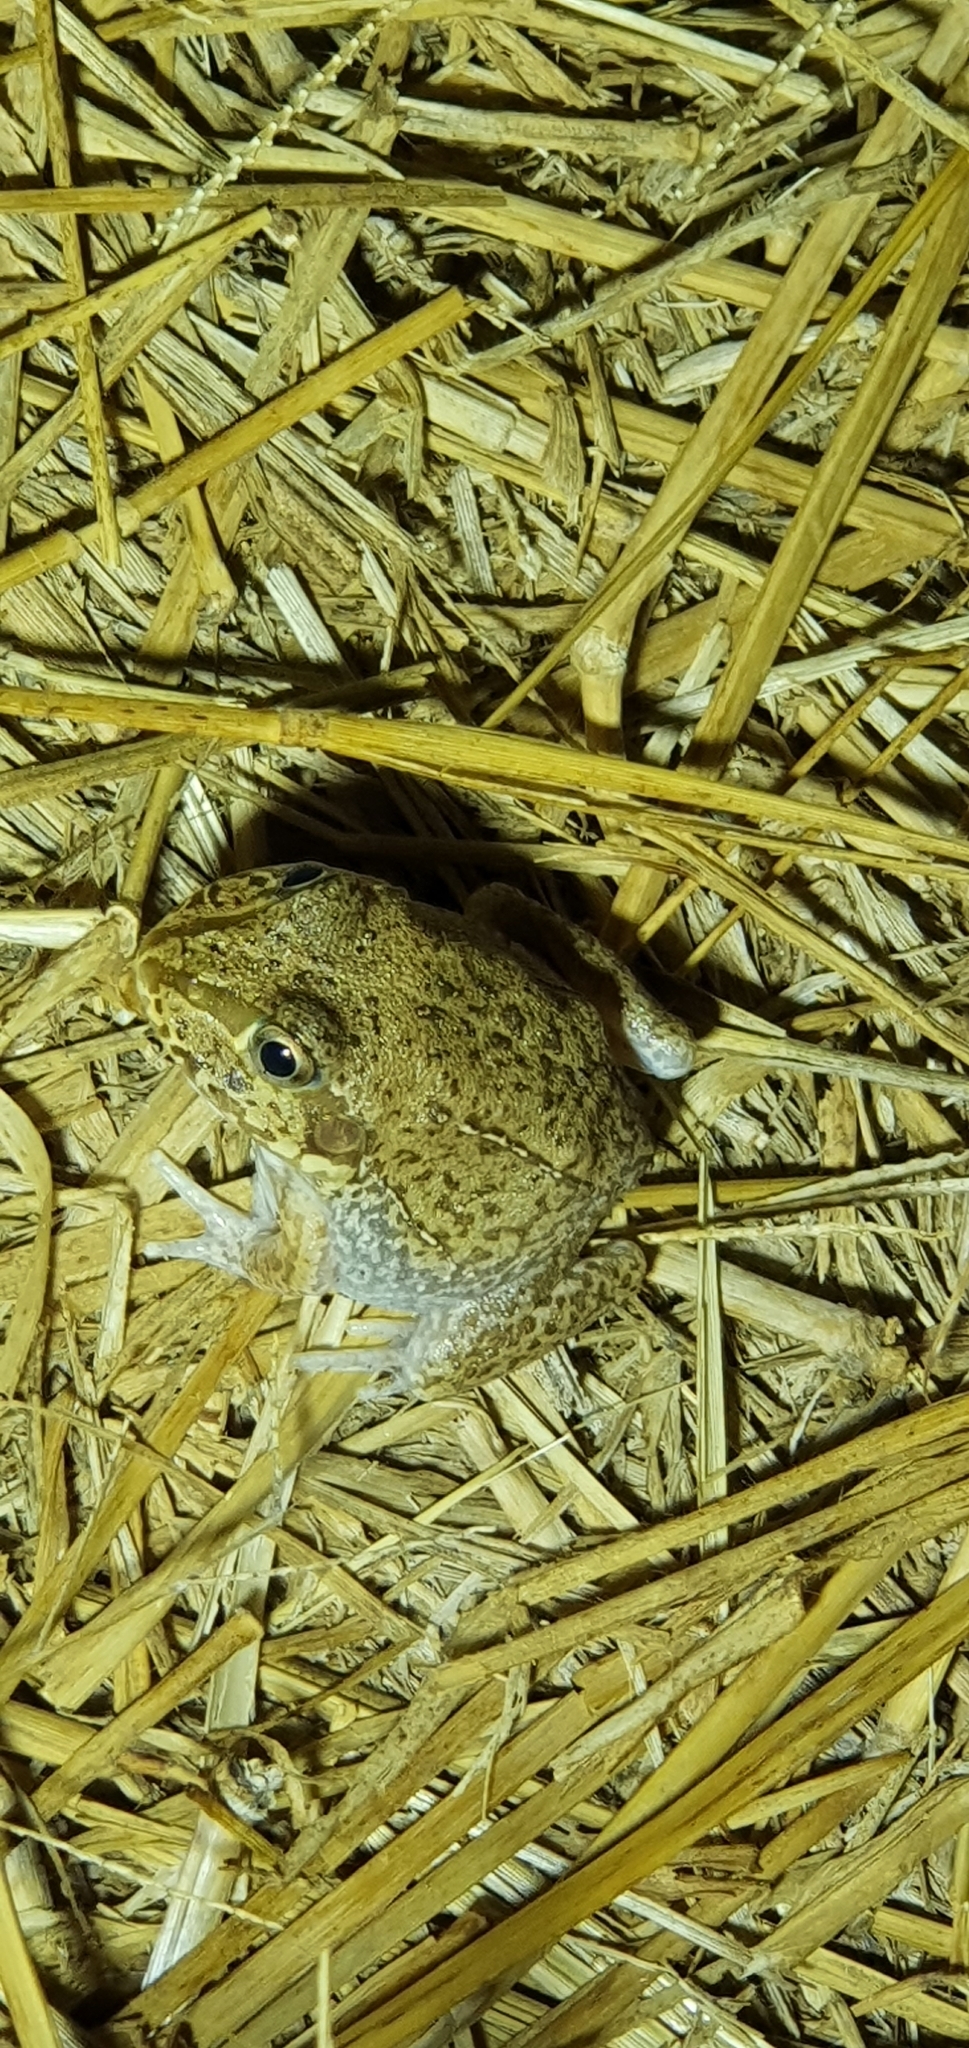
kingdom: Animalia
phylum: Chordata
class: Amphibia
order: Anura
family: Pelodryadidae
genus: Ranoidea
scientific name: Ranoidea novaehollandiae
